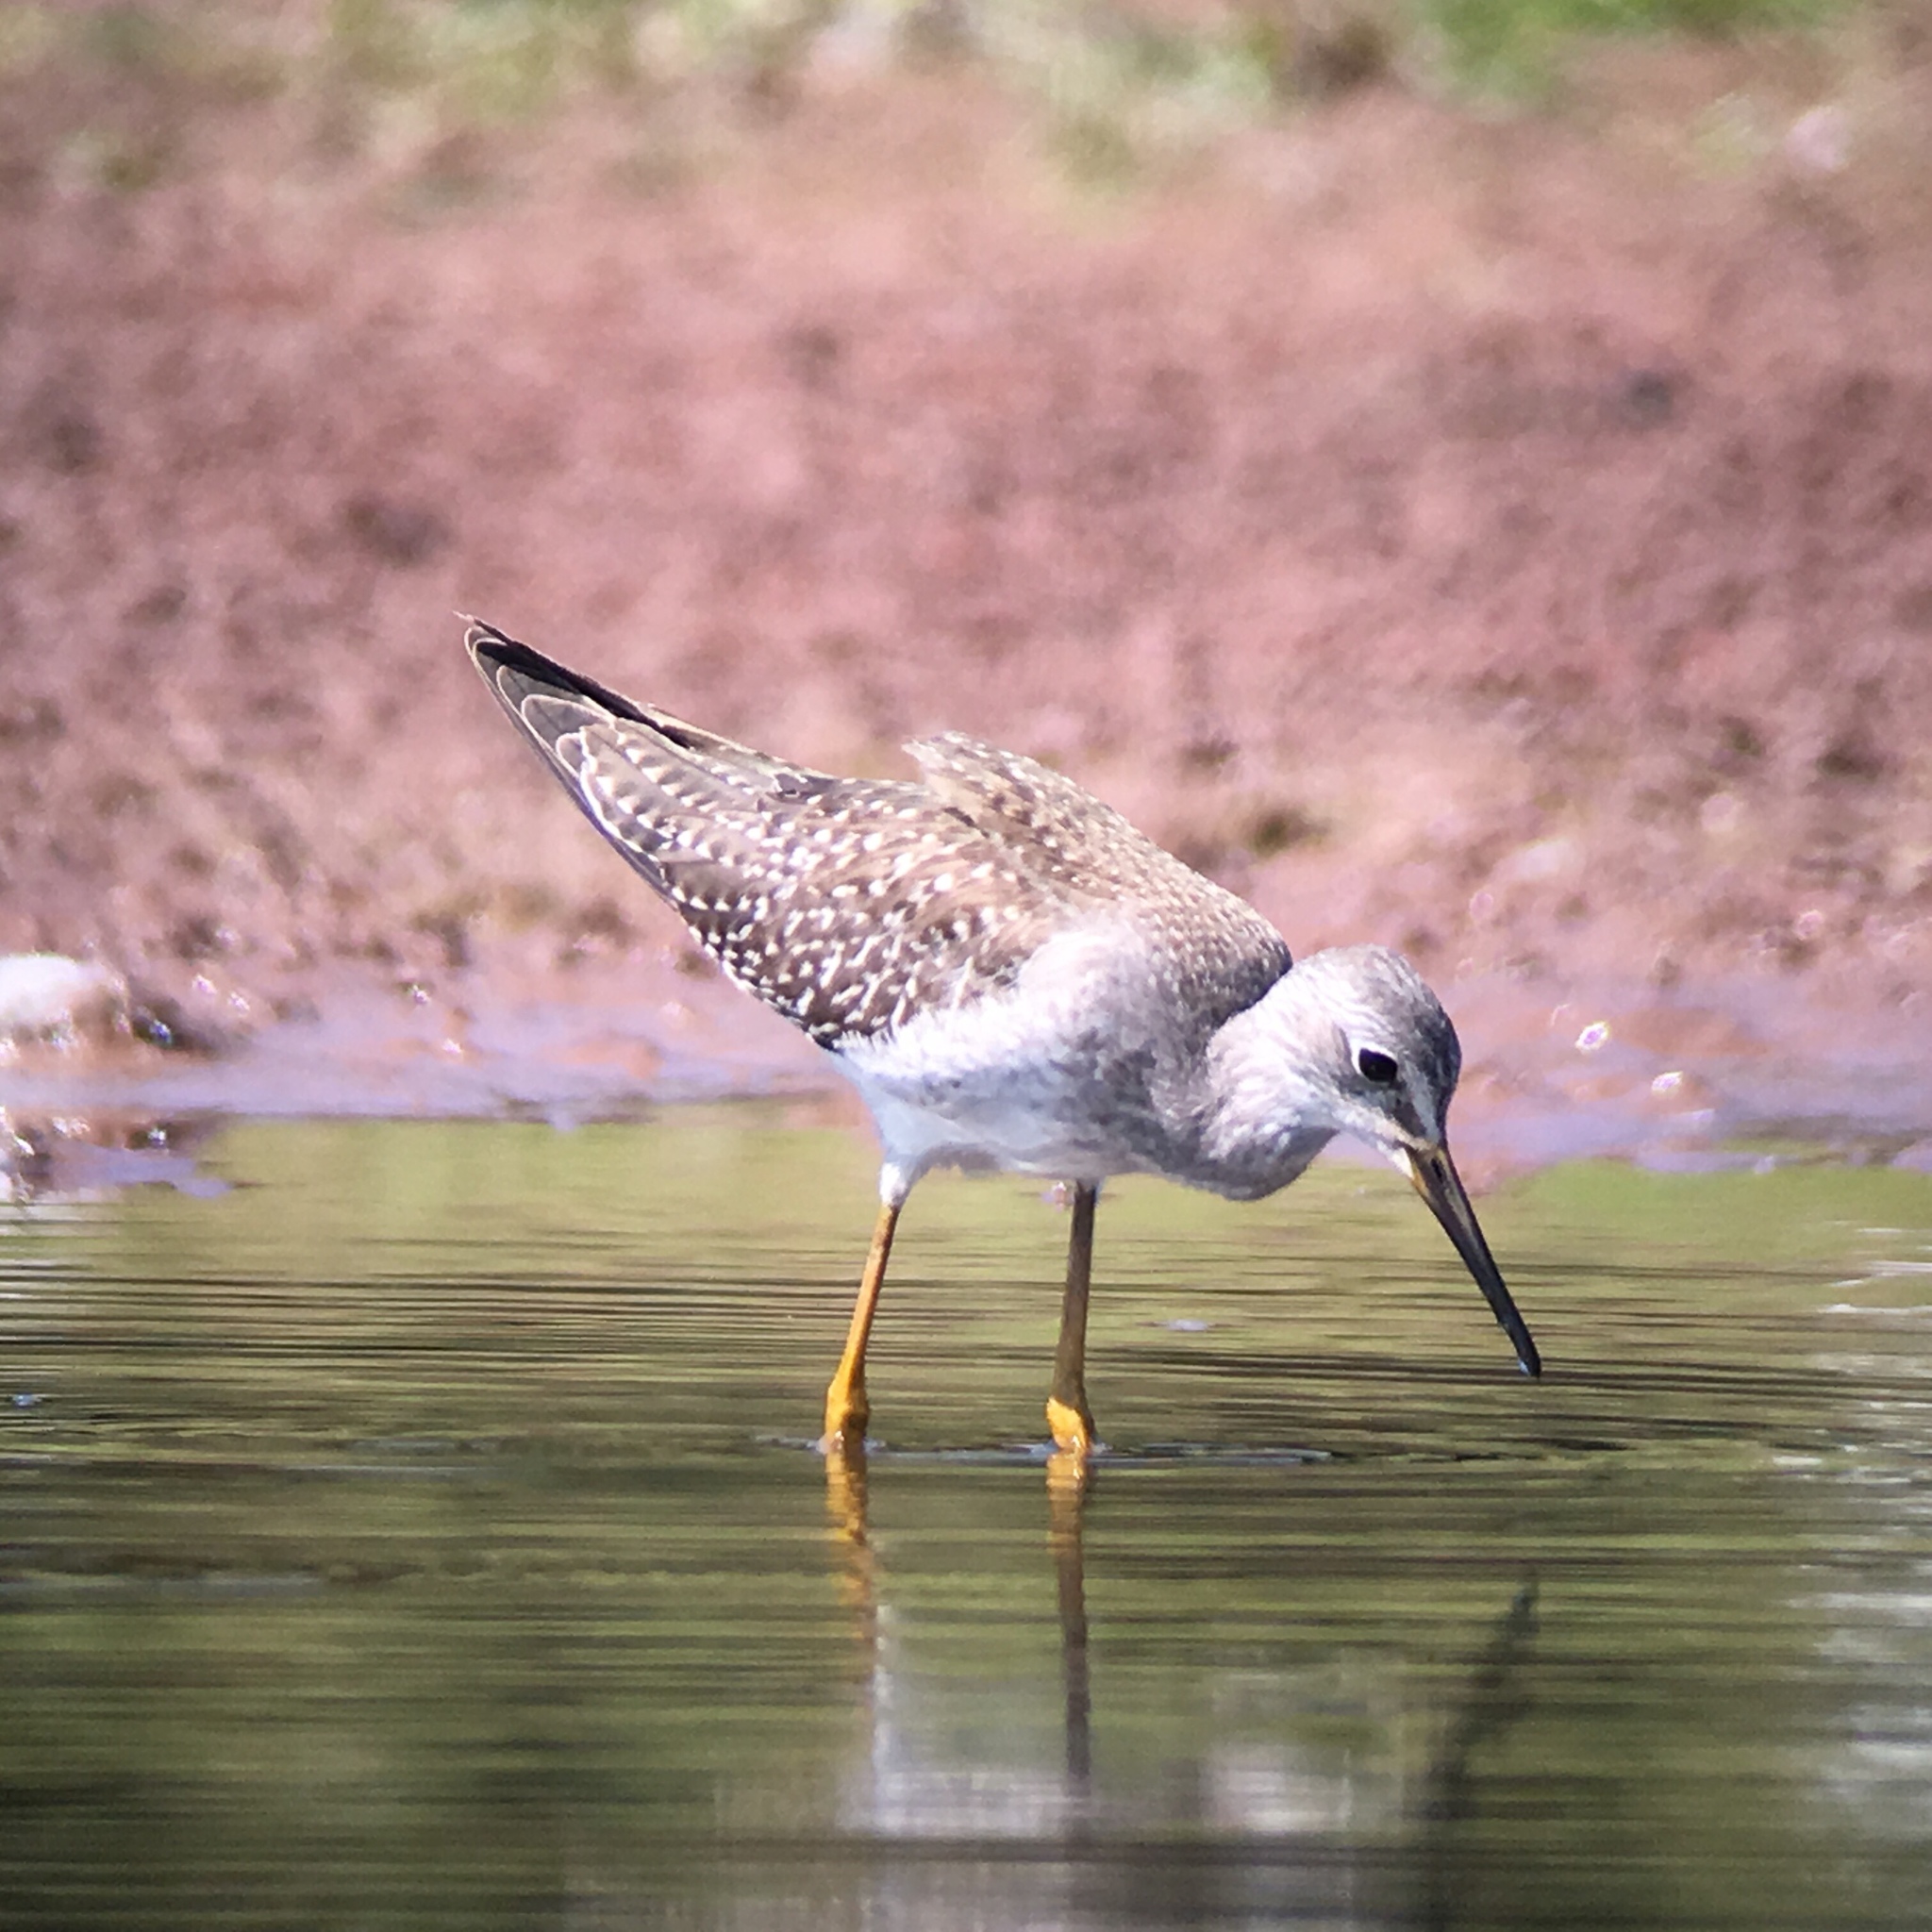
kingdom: Animalia
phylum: Chordata
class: Aves
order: Charadriiformes
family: Scolopacidae
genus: Tringa
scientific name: Tringa flavipes
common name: Lesser yellowlegs
